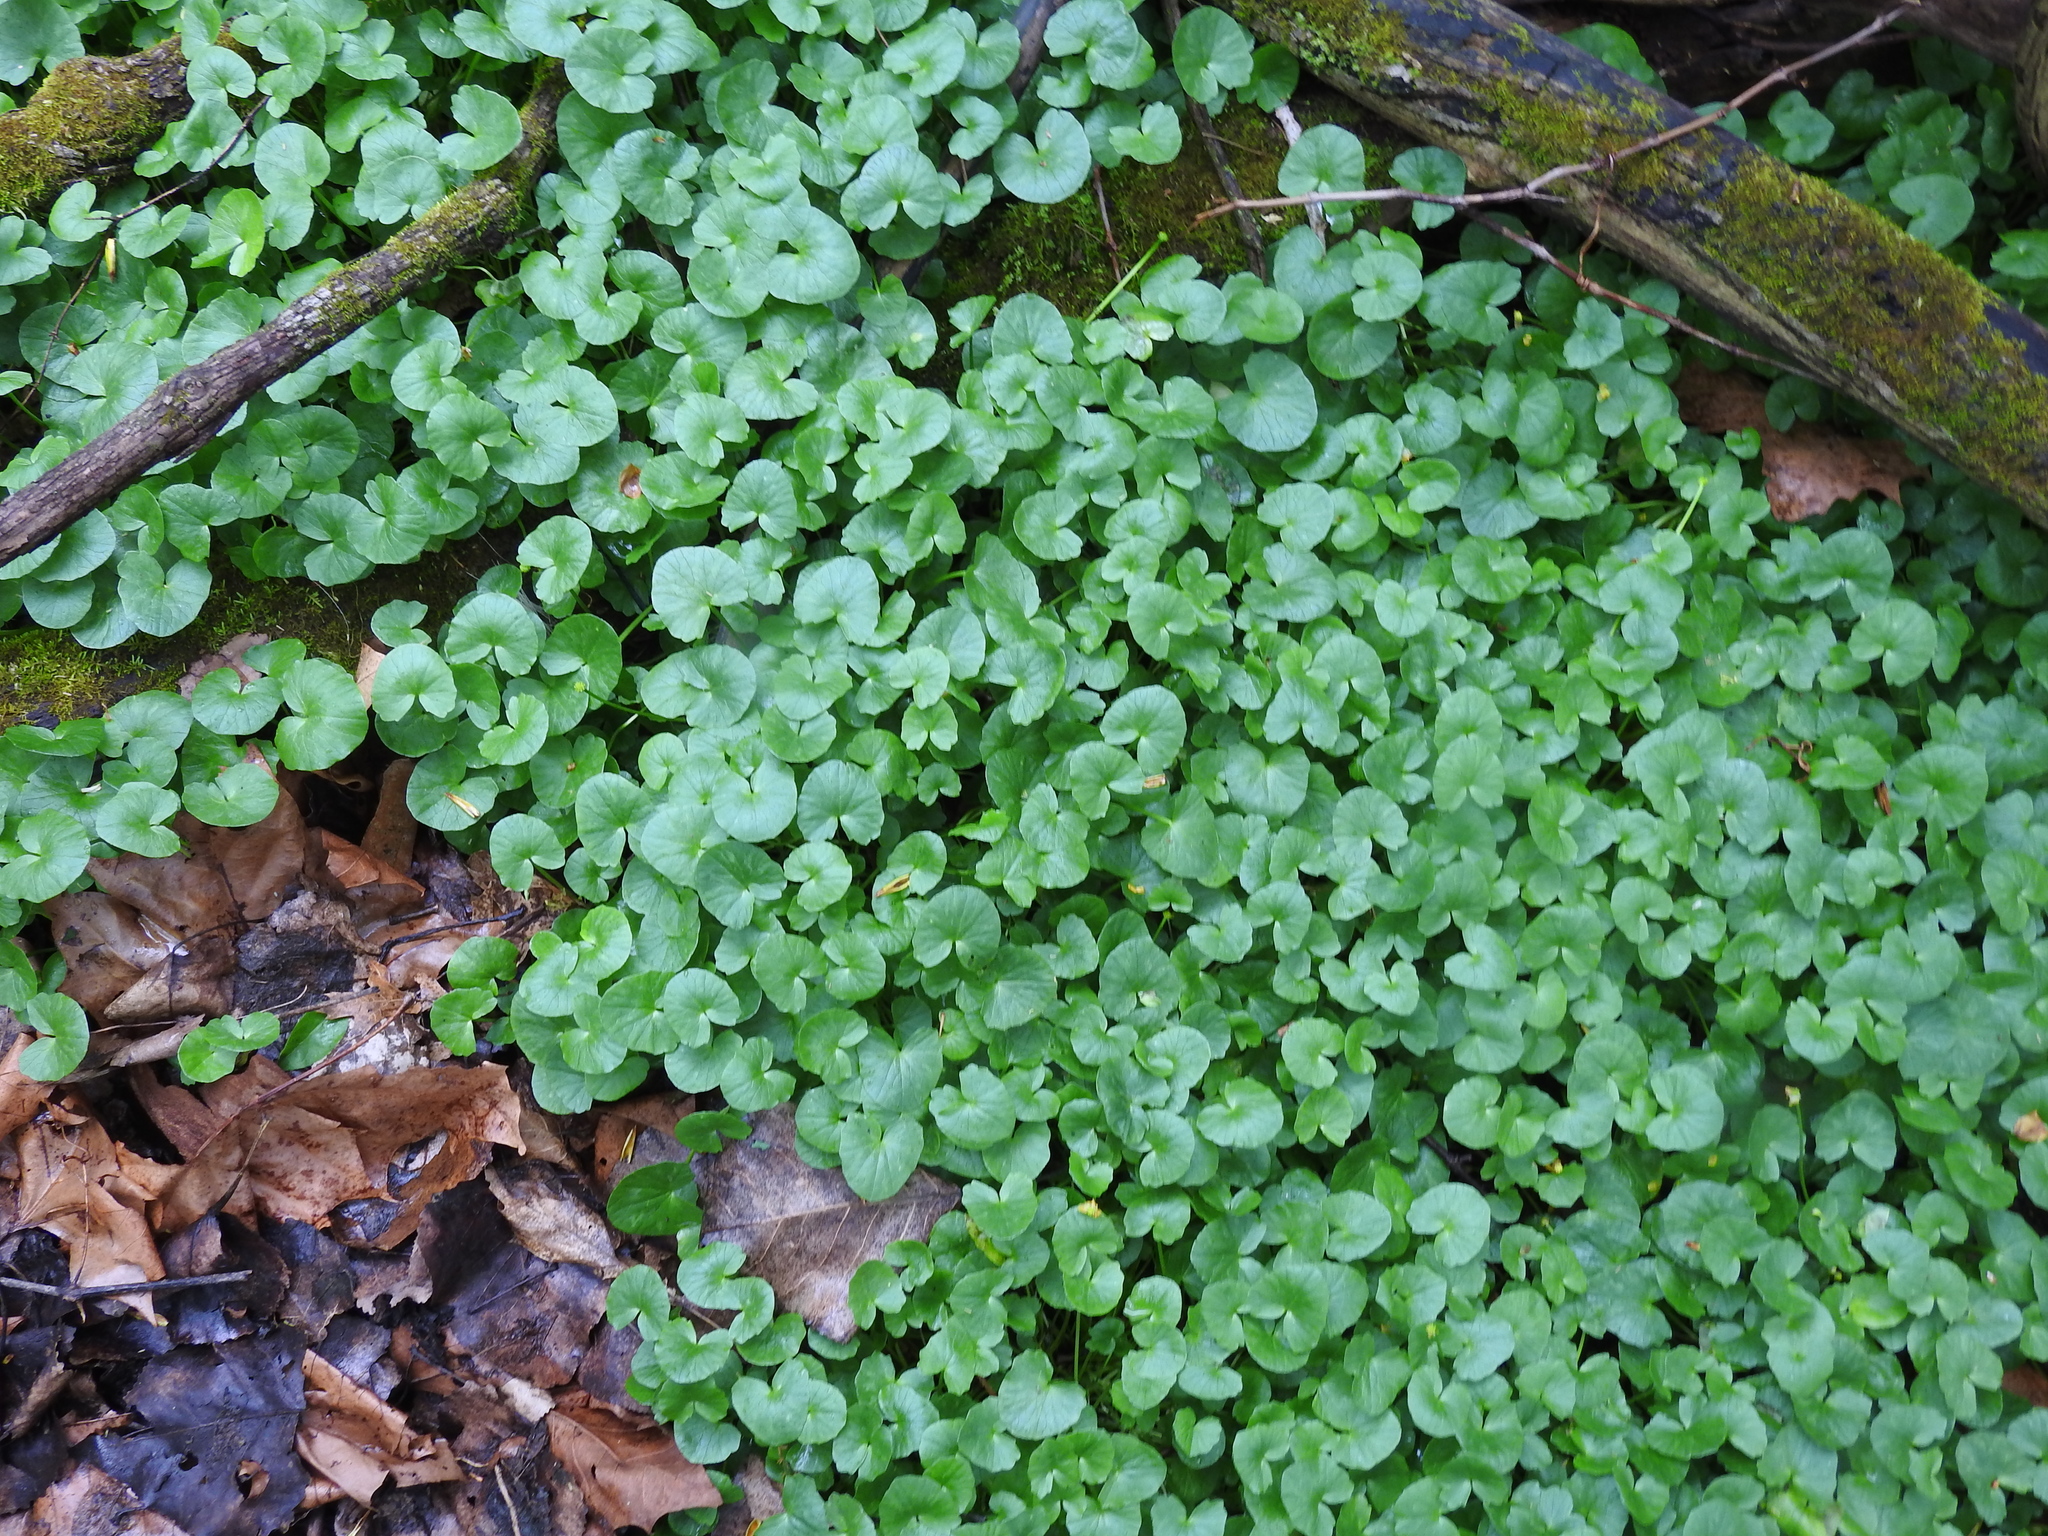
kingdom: Plantae
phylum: Tracheophyta
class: Magnoliopsida
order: Ranunculales
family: Ranunculaceae
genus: Ficaria
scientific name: Ficaria verna
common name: Lesser celandine
